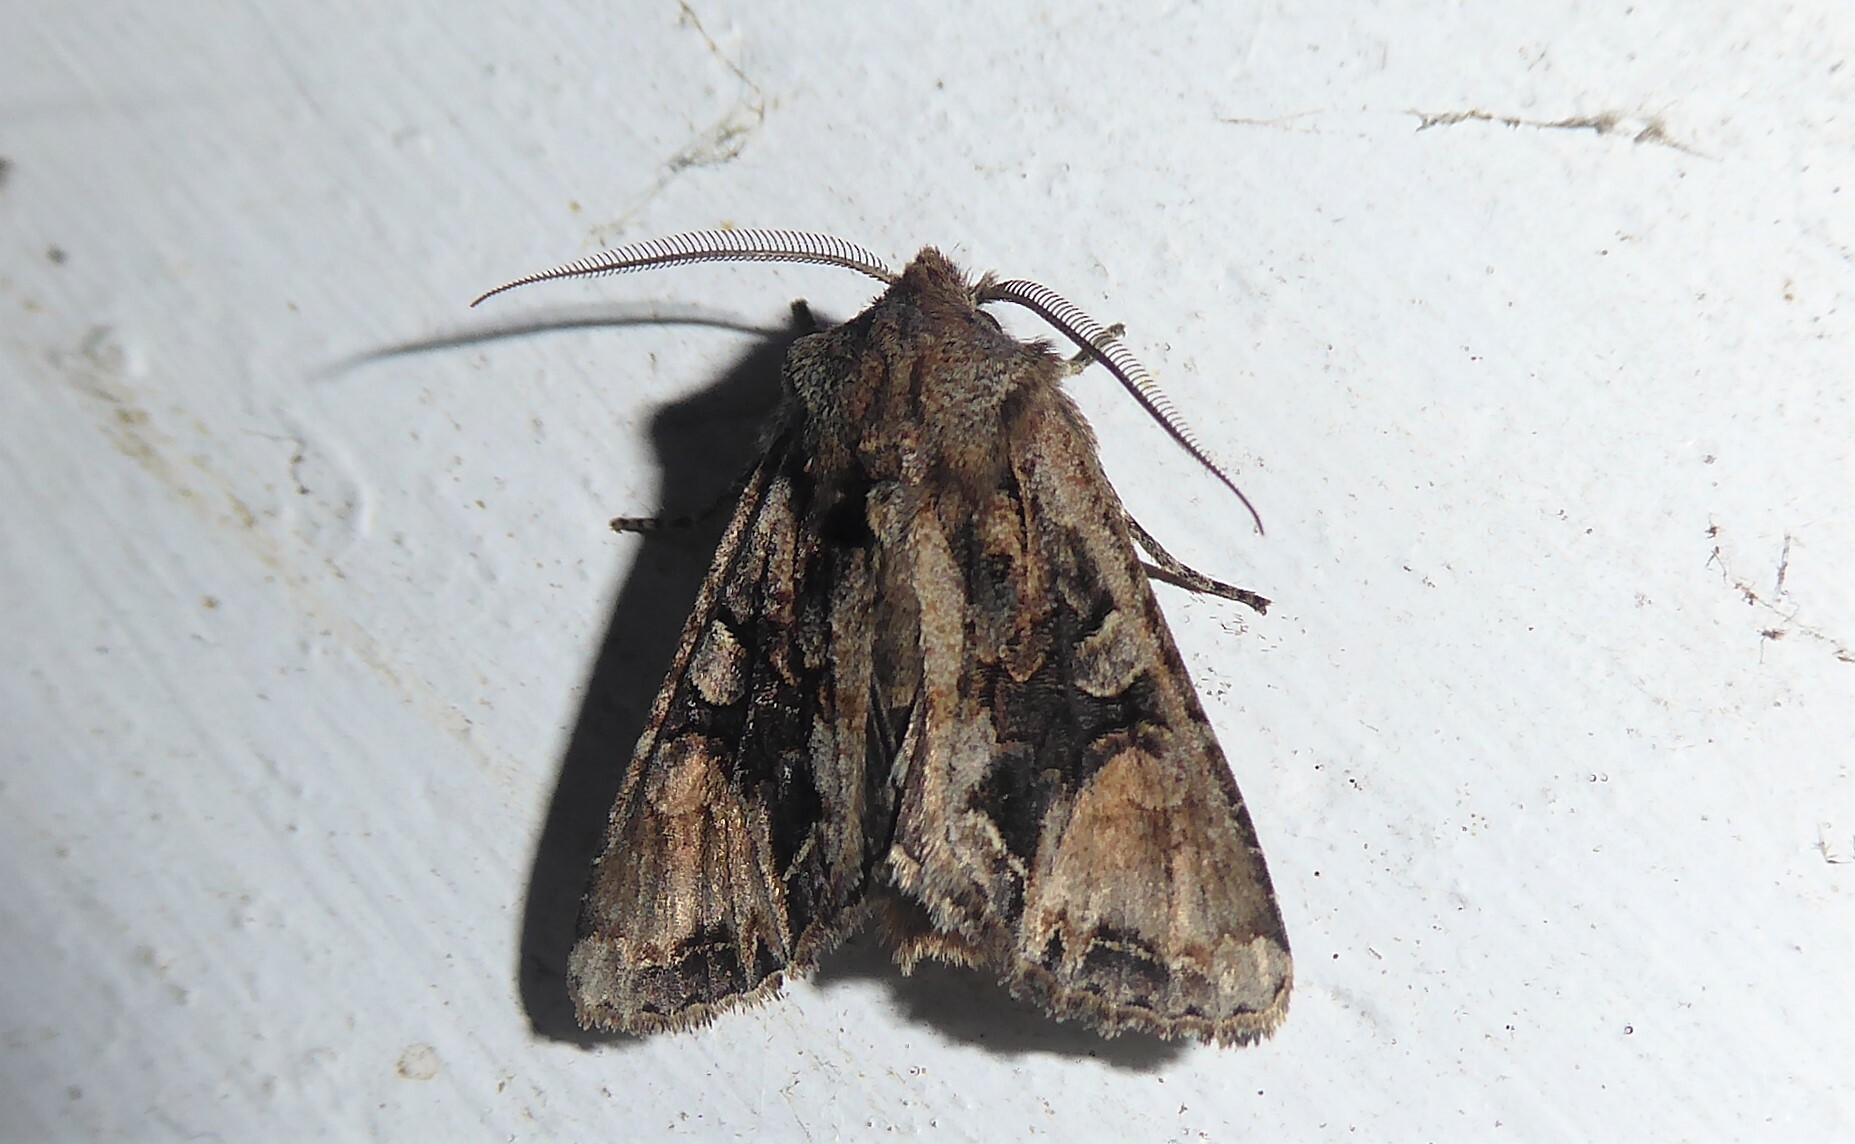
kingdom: Animalia
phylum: Arthropoda
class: Insecta
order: Lepidoptera
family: Noctuidae
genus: Ichneutica
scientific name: Ichneutica
